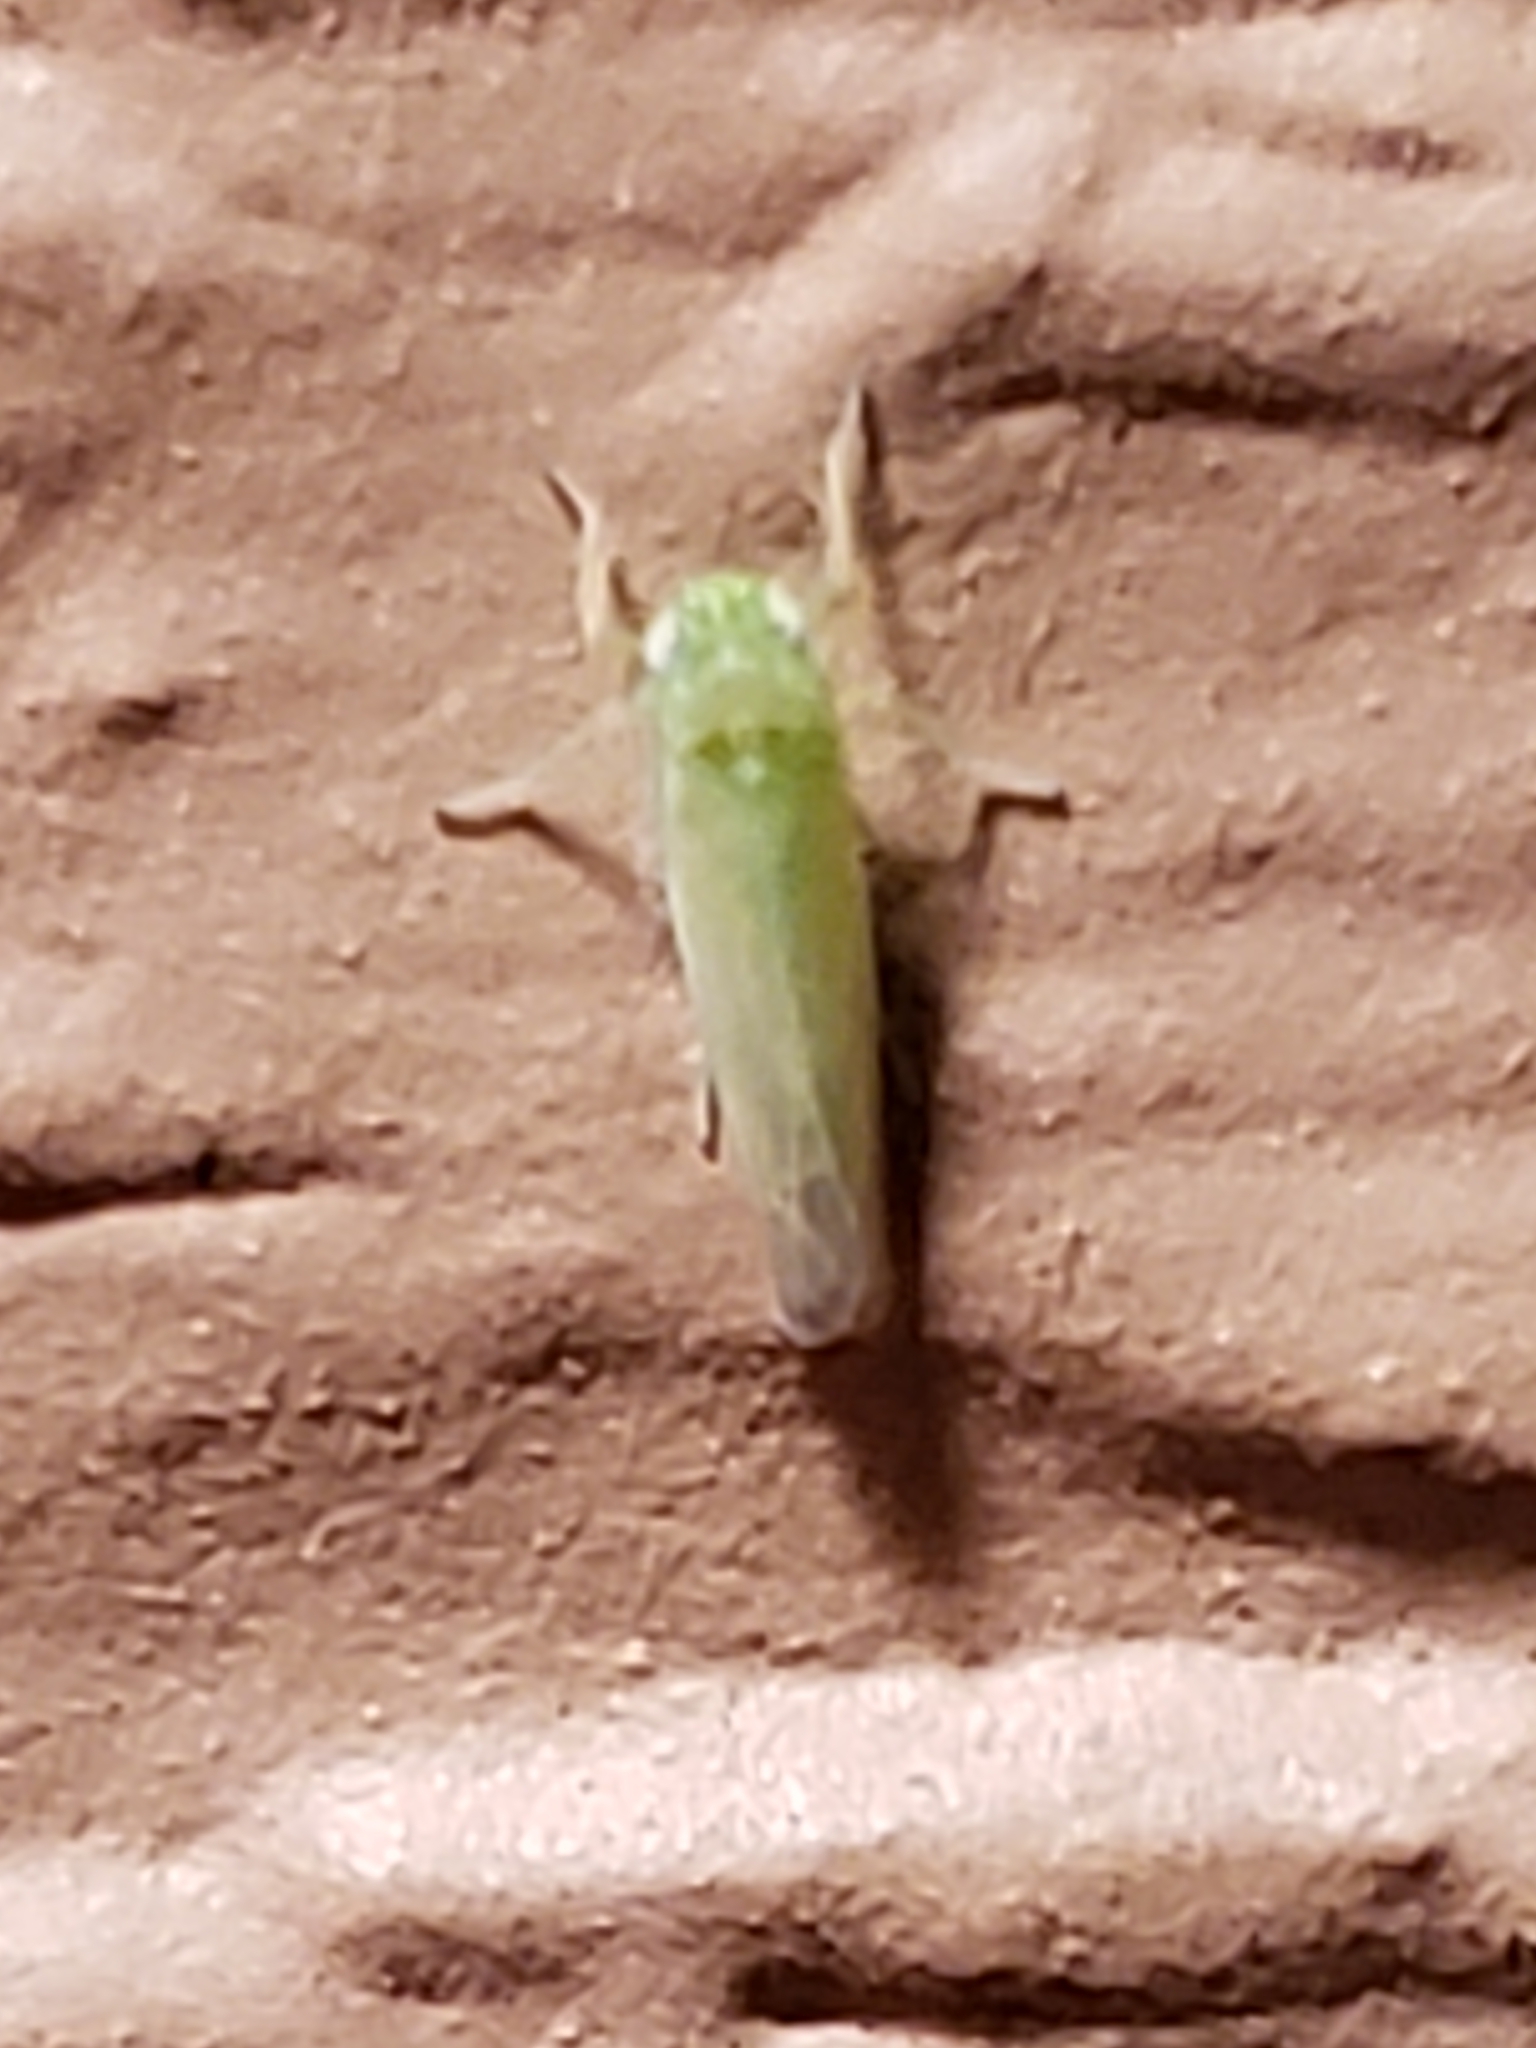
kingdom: Animalia
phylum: Arthropoda
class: Insecta
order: Hemiptera
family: Cicadellidae
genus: Empoasca
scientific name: Empoasca fabae
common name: Potato leafhopper
